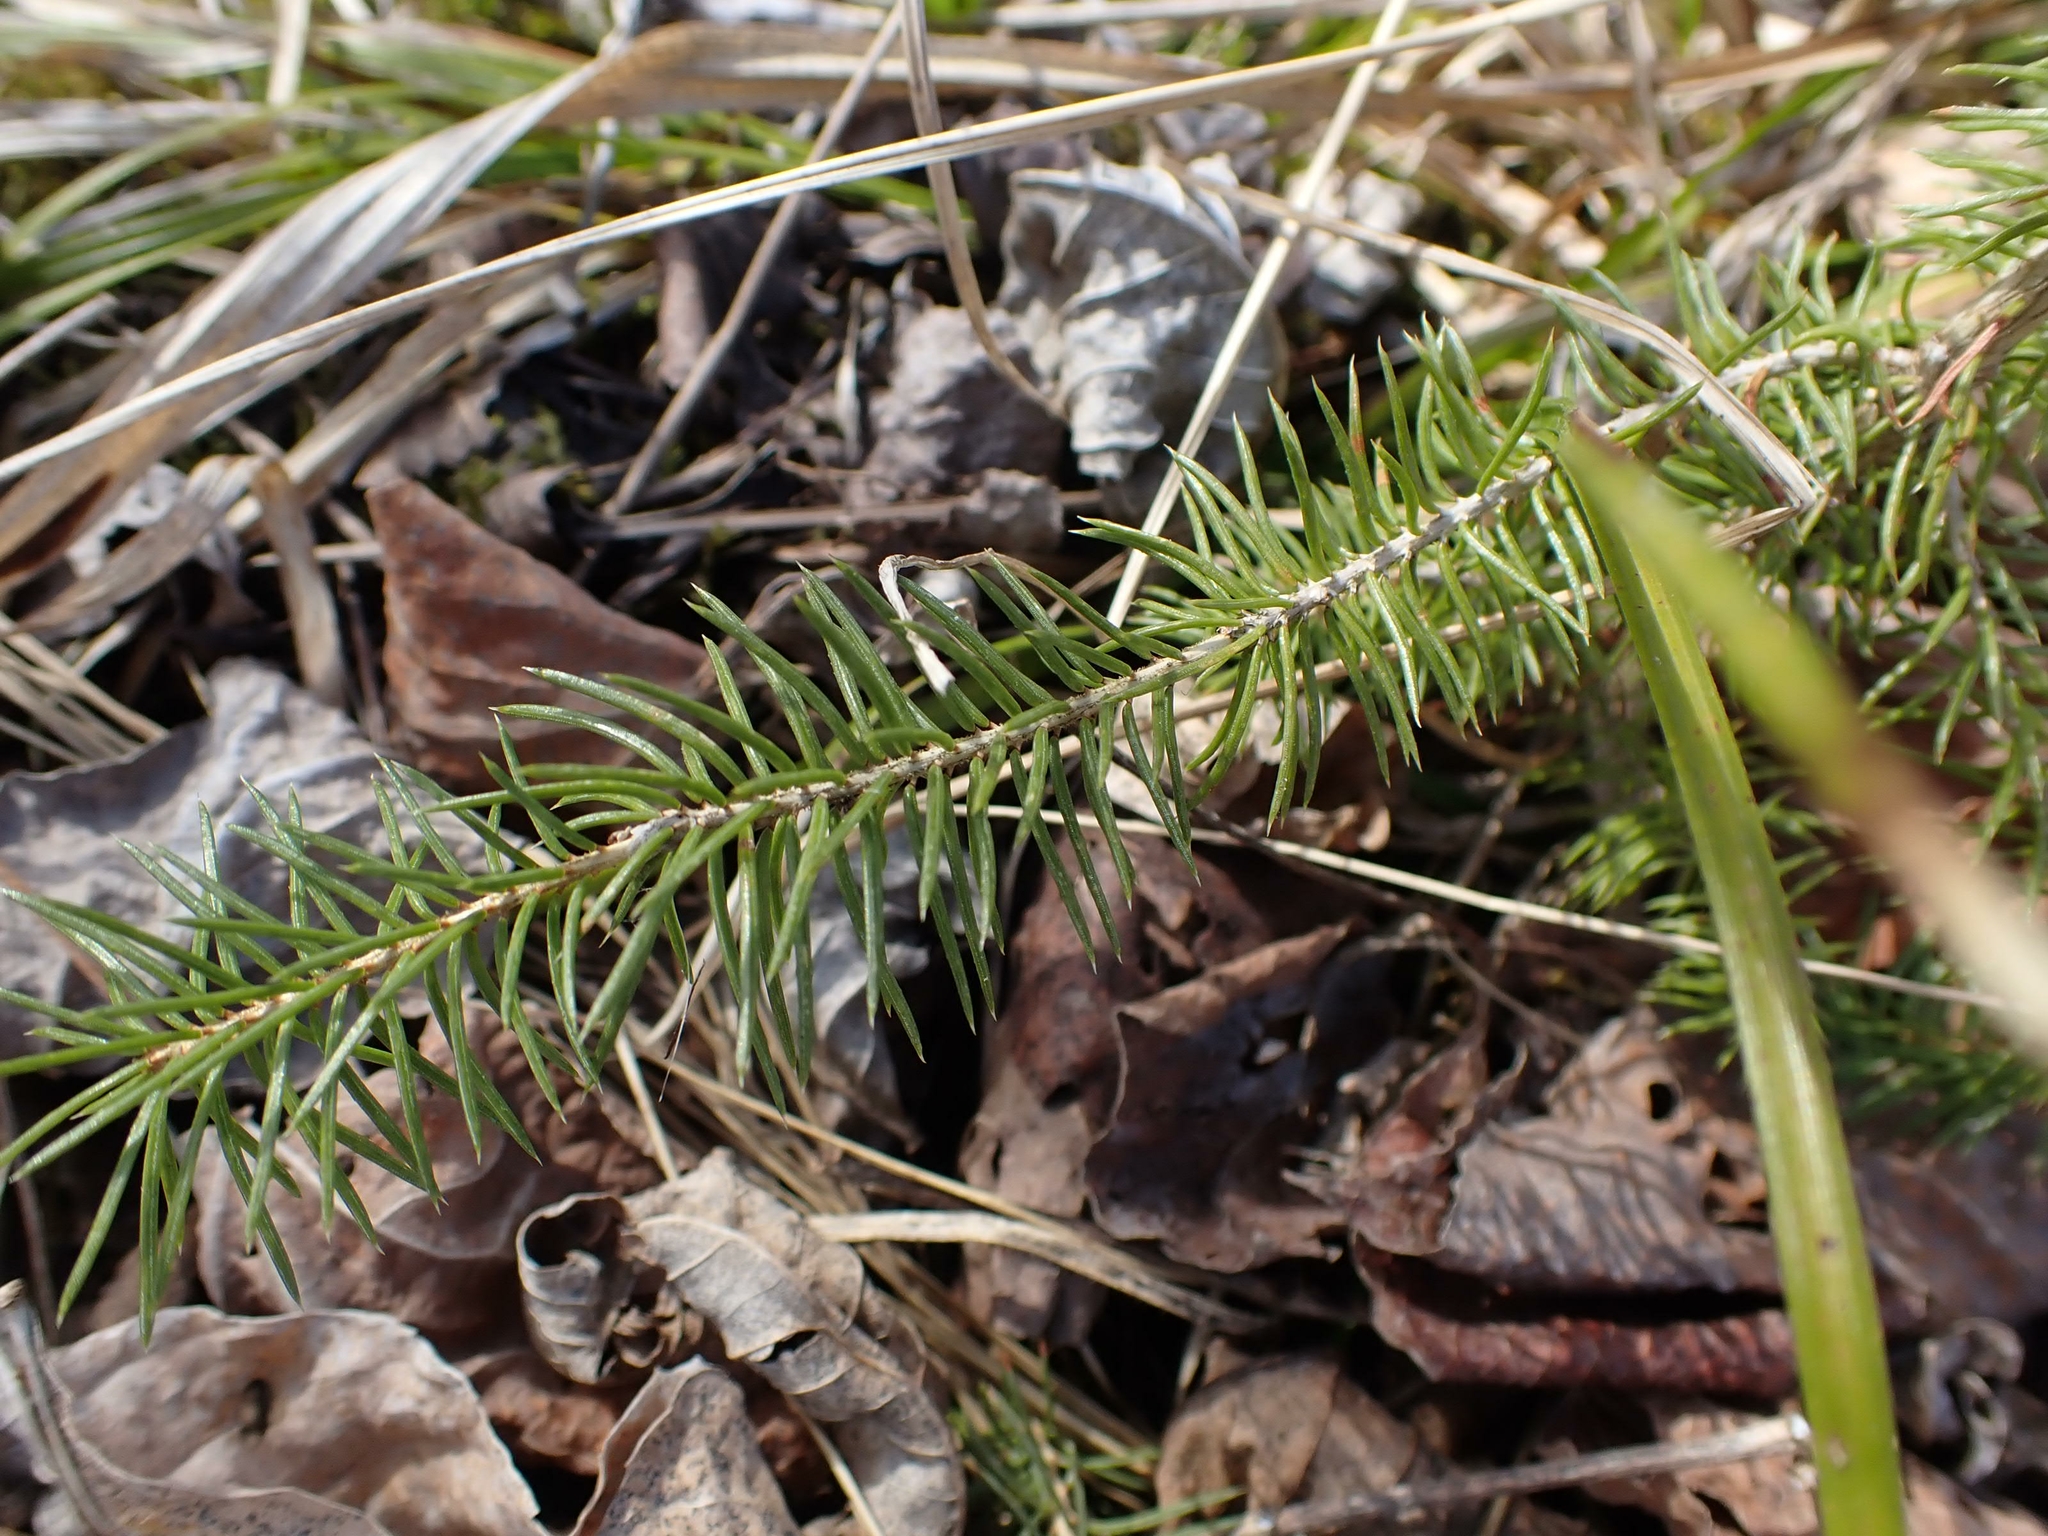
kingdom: Plantae
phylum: Tracheophyta
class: Pinopsida
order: Pinales
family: Pinaceae
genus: Picea
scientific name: Picea glauca
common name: White spruce
